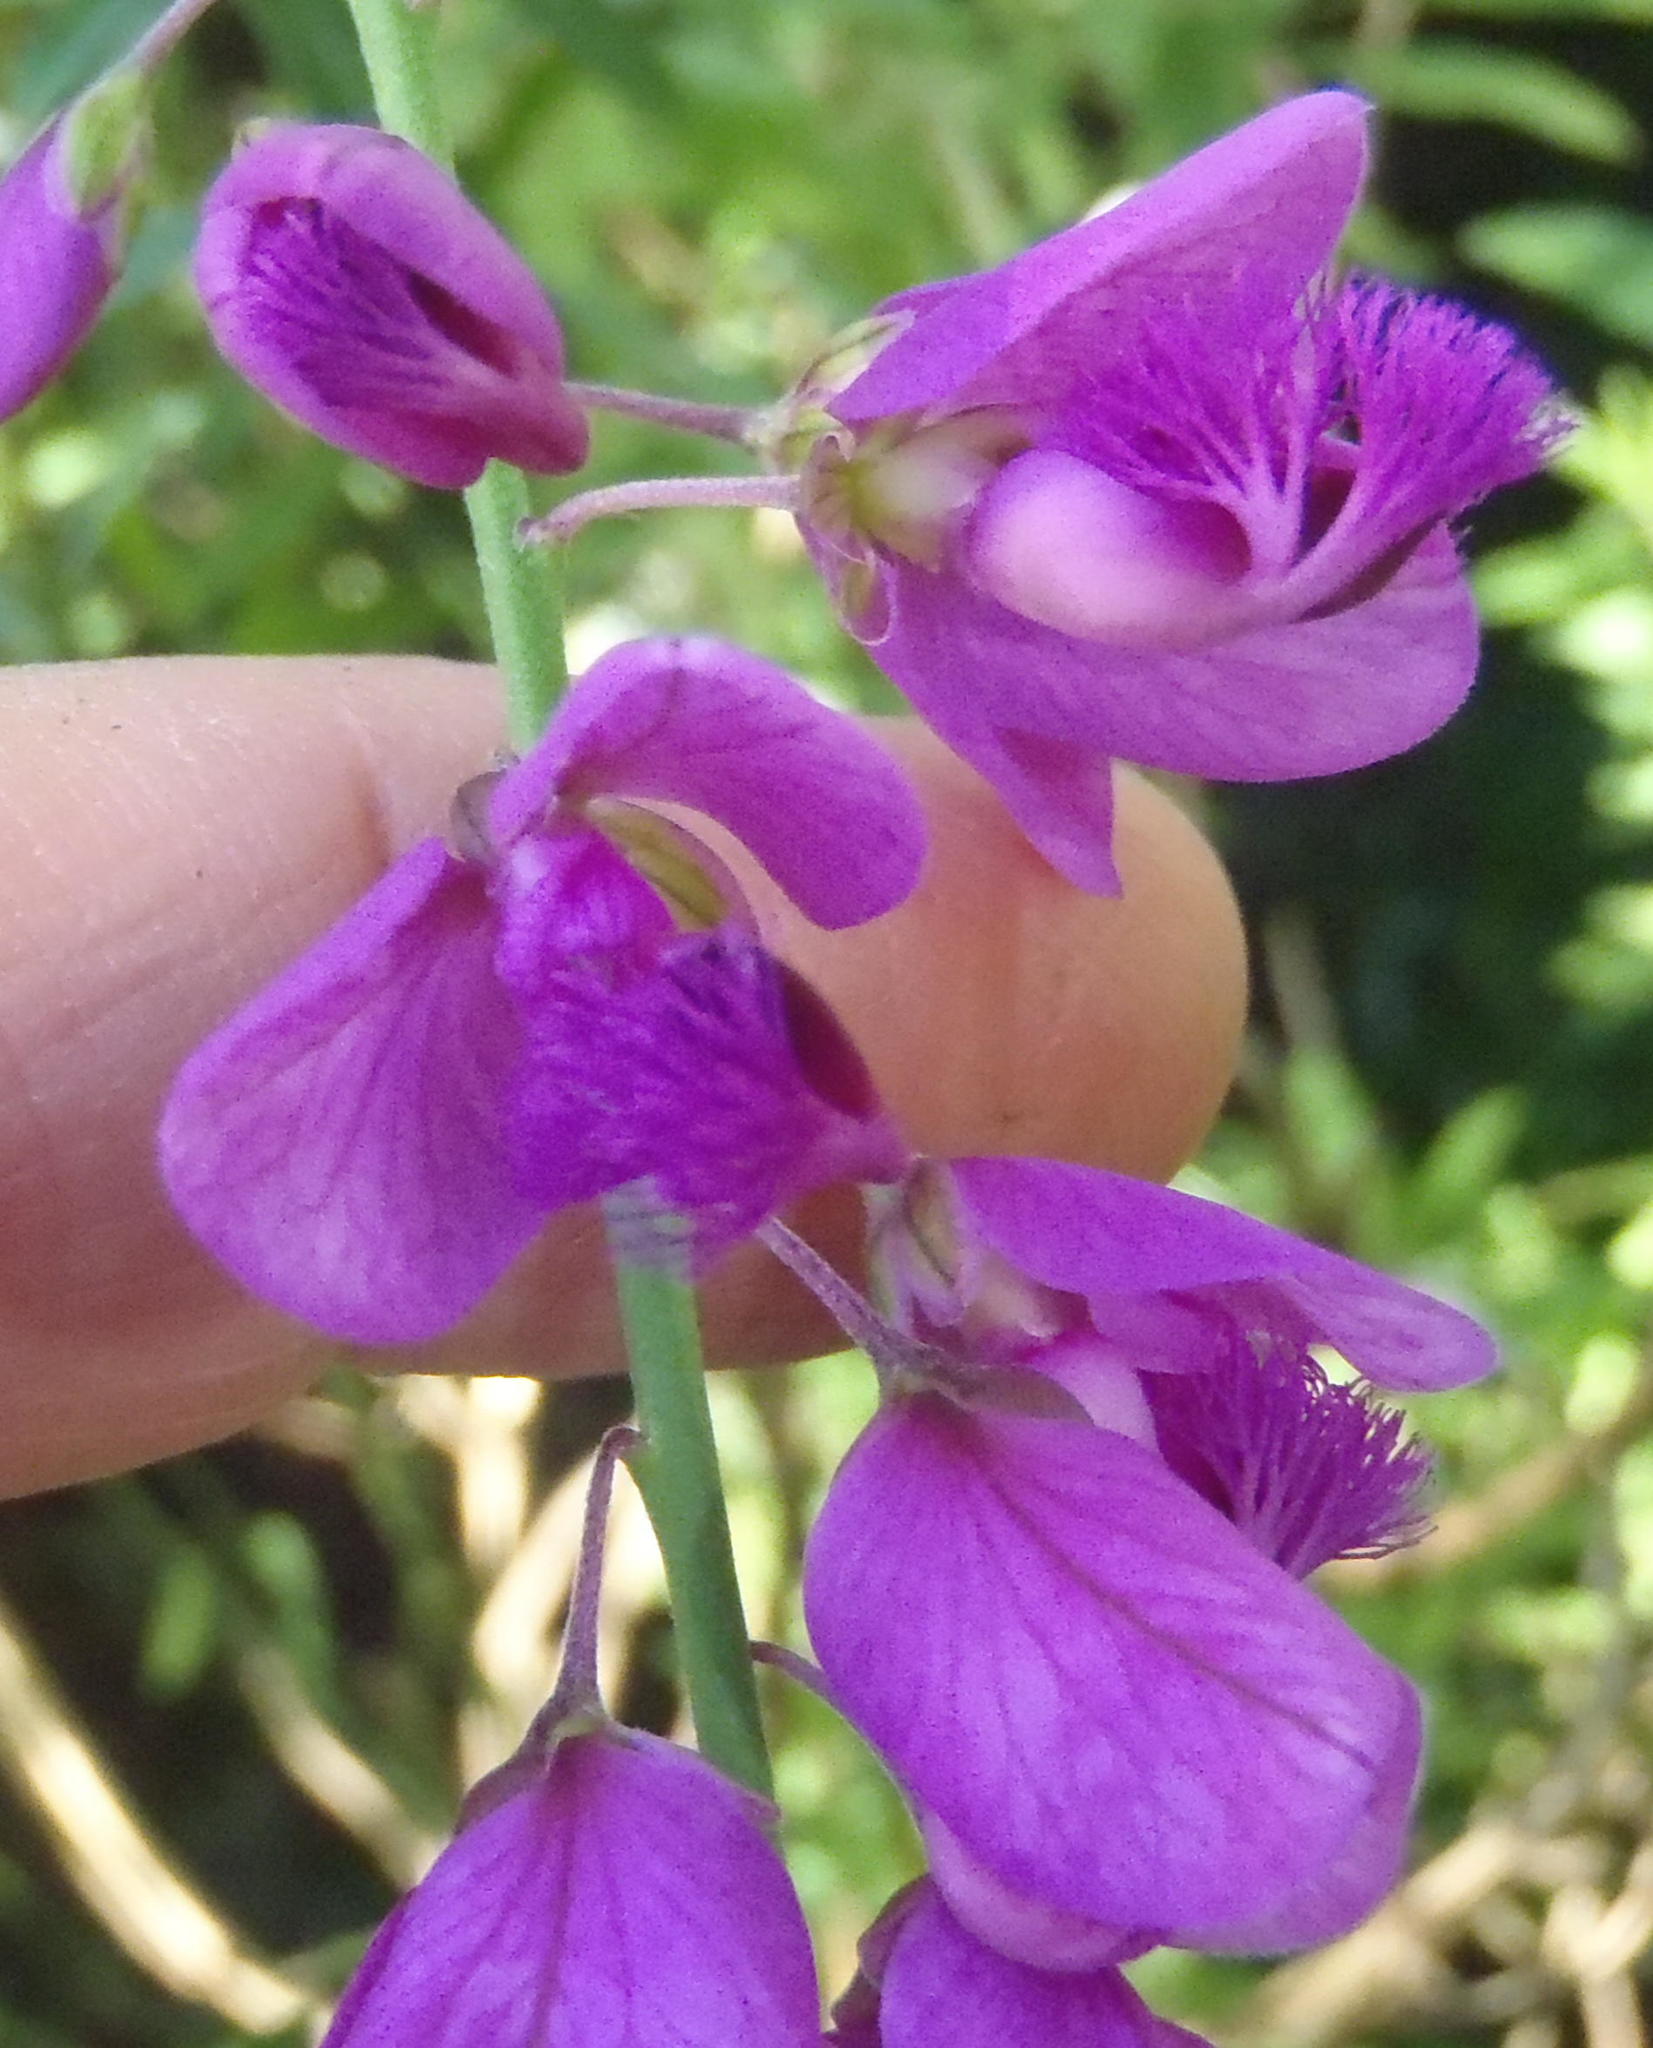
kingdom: Plantae
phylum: Tracheophyta
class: Magnoliopsida
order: Fabales
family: Polygalaceae
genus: Polygala
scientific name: Polygala virgata
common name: Milkwort
